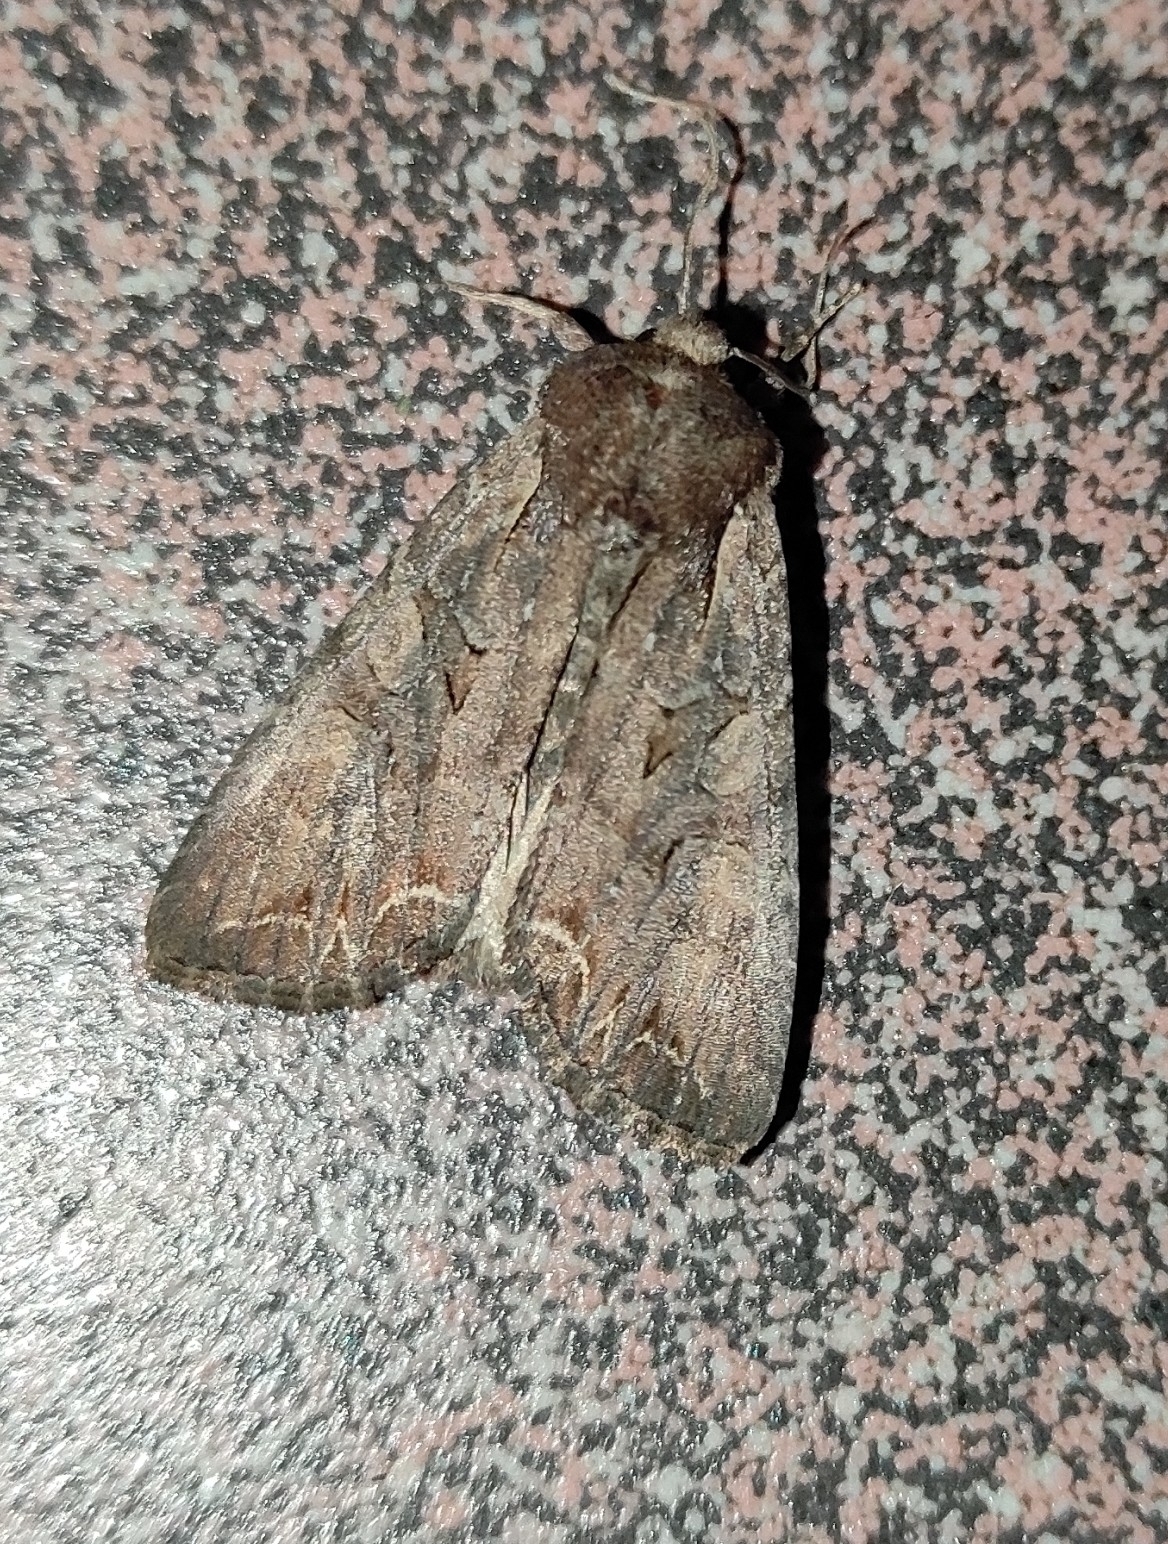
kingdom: Animalia
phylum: Arthropoda
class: Insecta
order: Lepidoptera
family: Noctuidae
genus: Lacanobia
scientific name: Lacanobia suasa
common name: Dog's tooth
